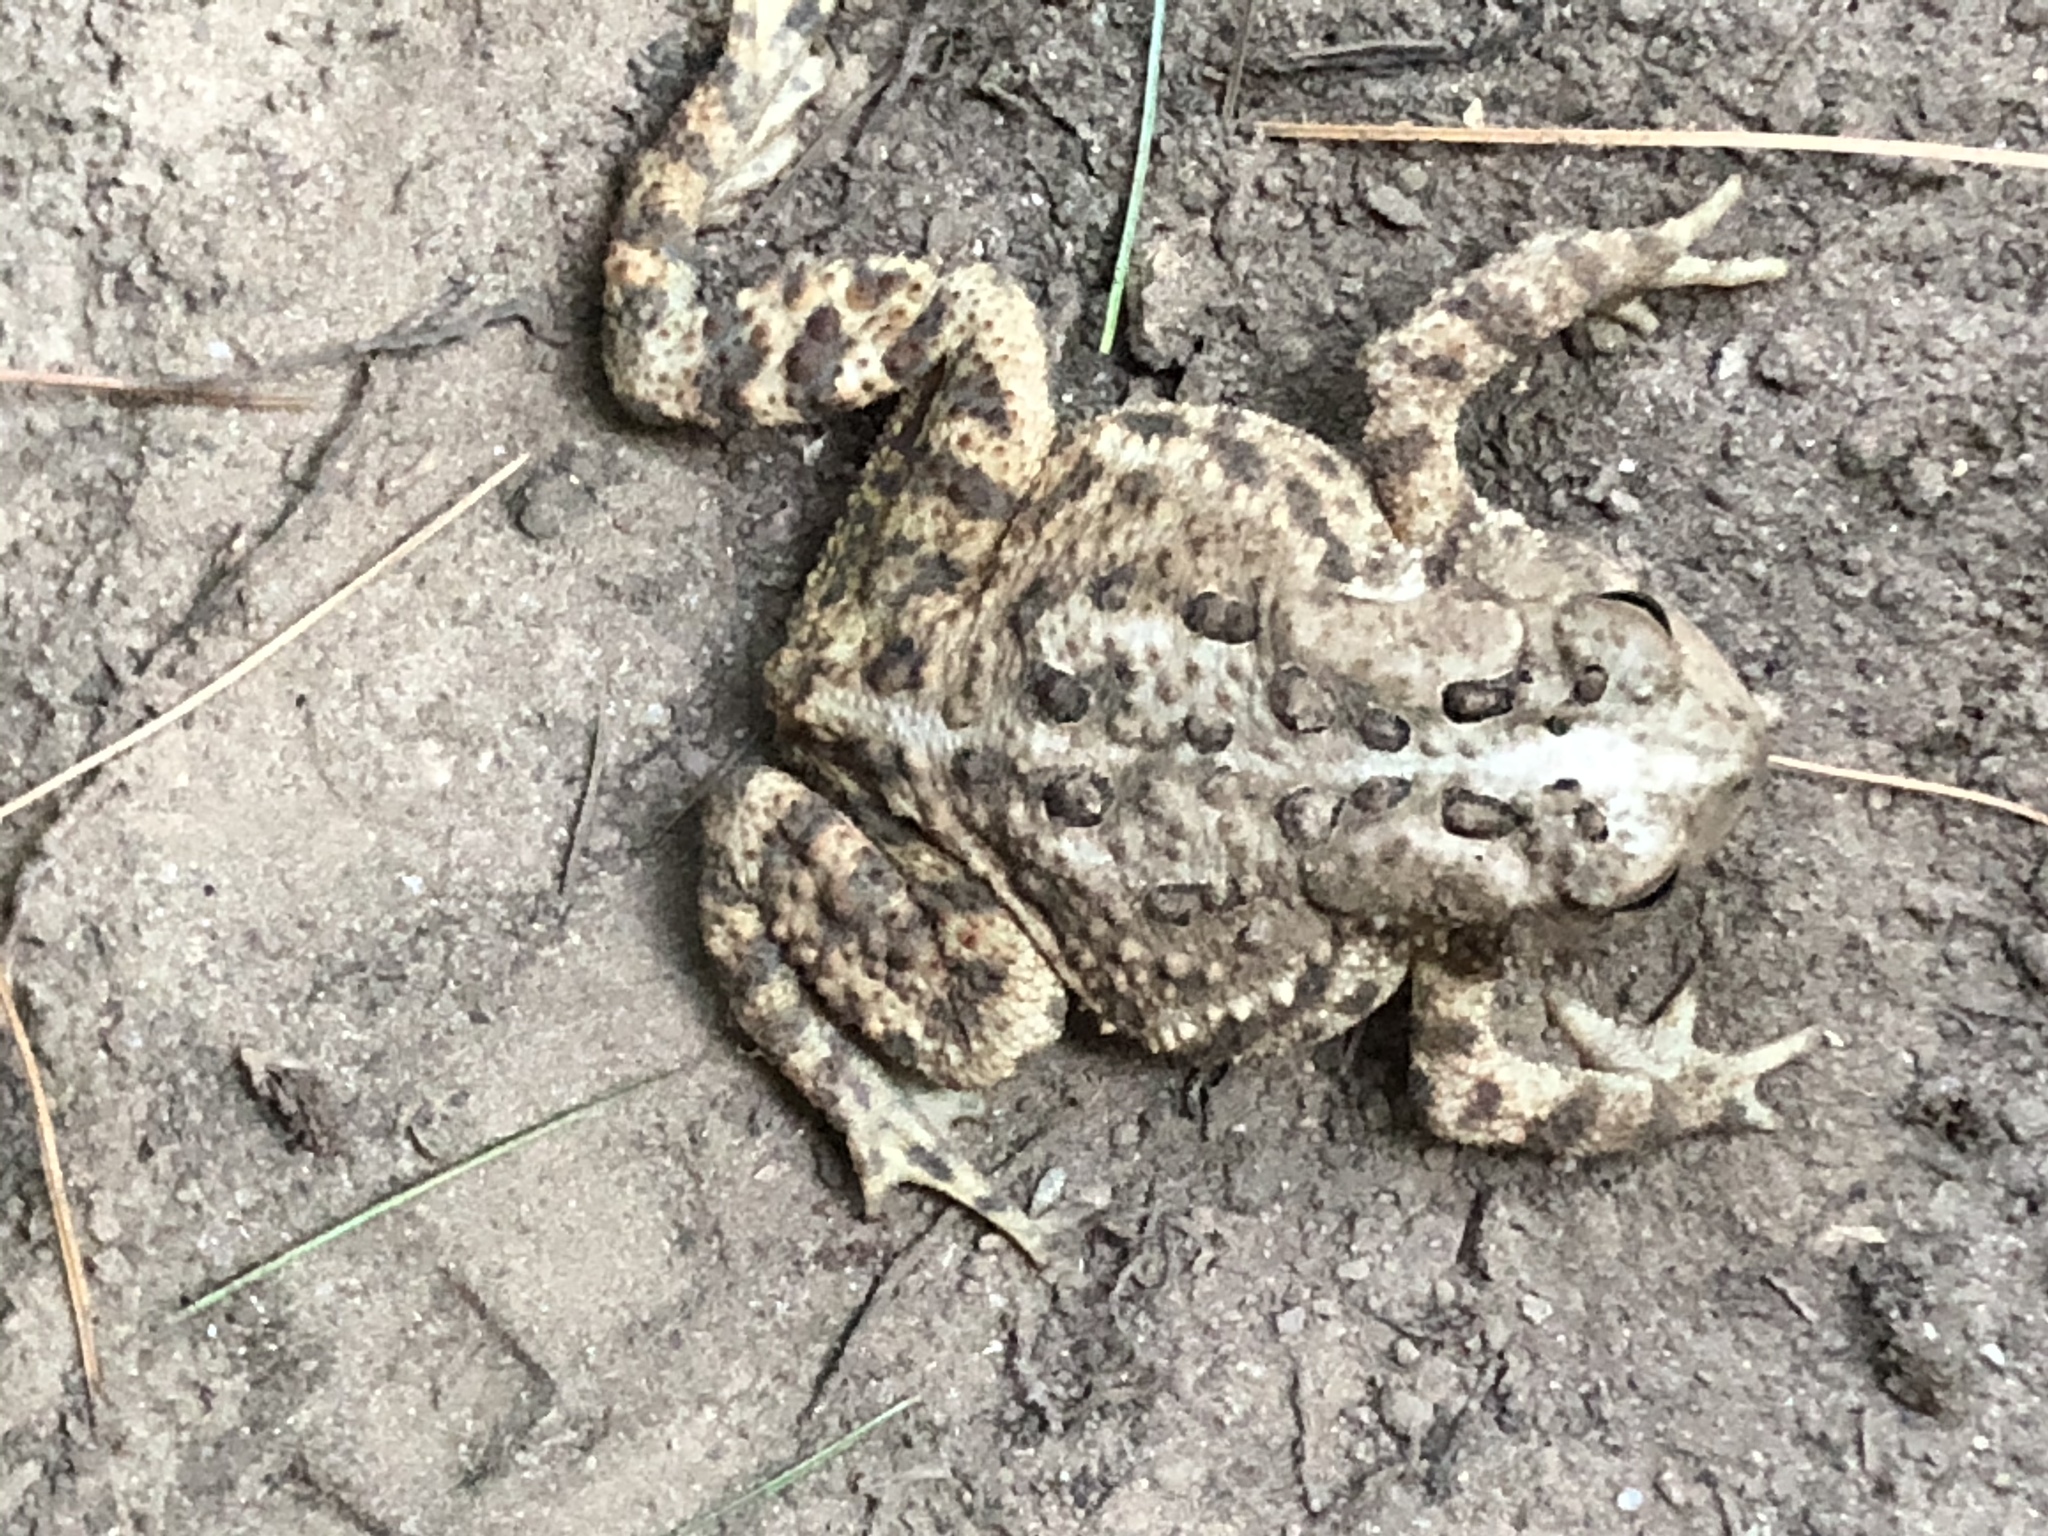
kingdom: Animalia
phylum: Chordata
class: Amphibia
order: Anura
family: Bufonidae
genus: Anaxyrus
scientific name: Anaxyrus americanus
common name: American toad
